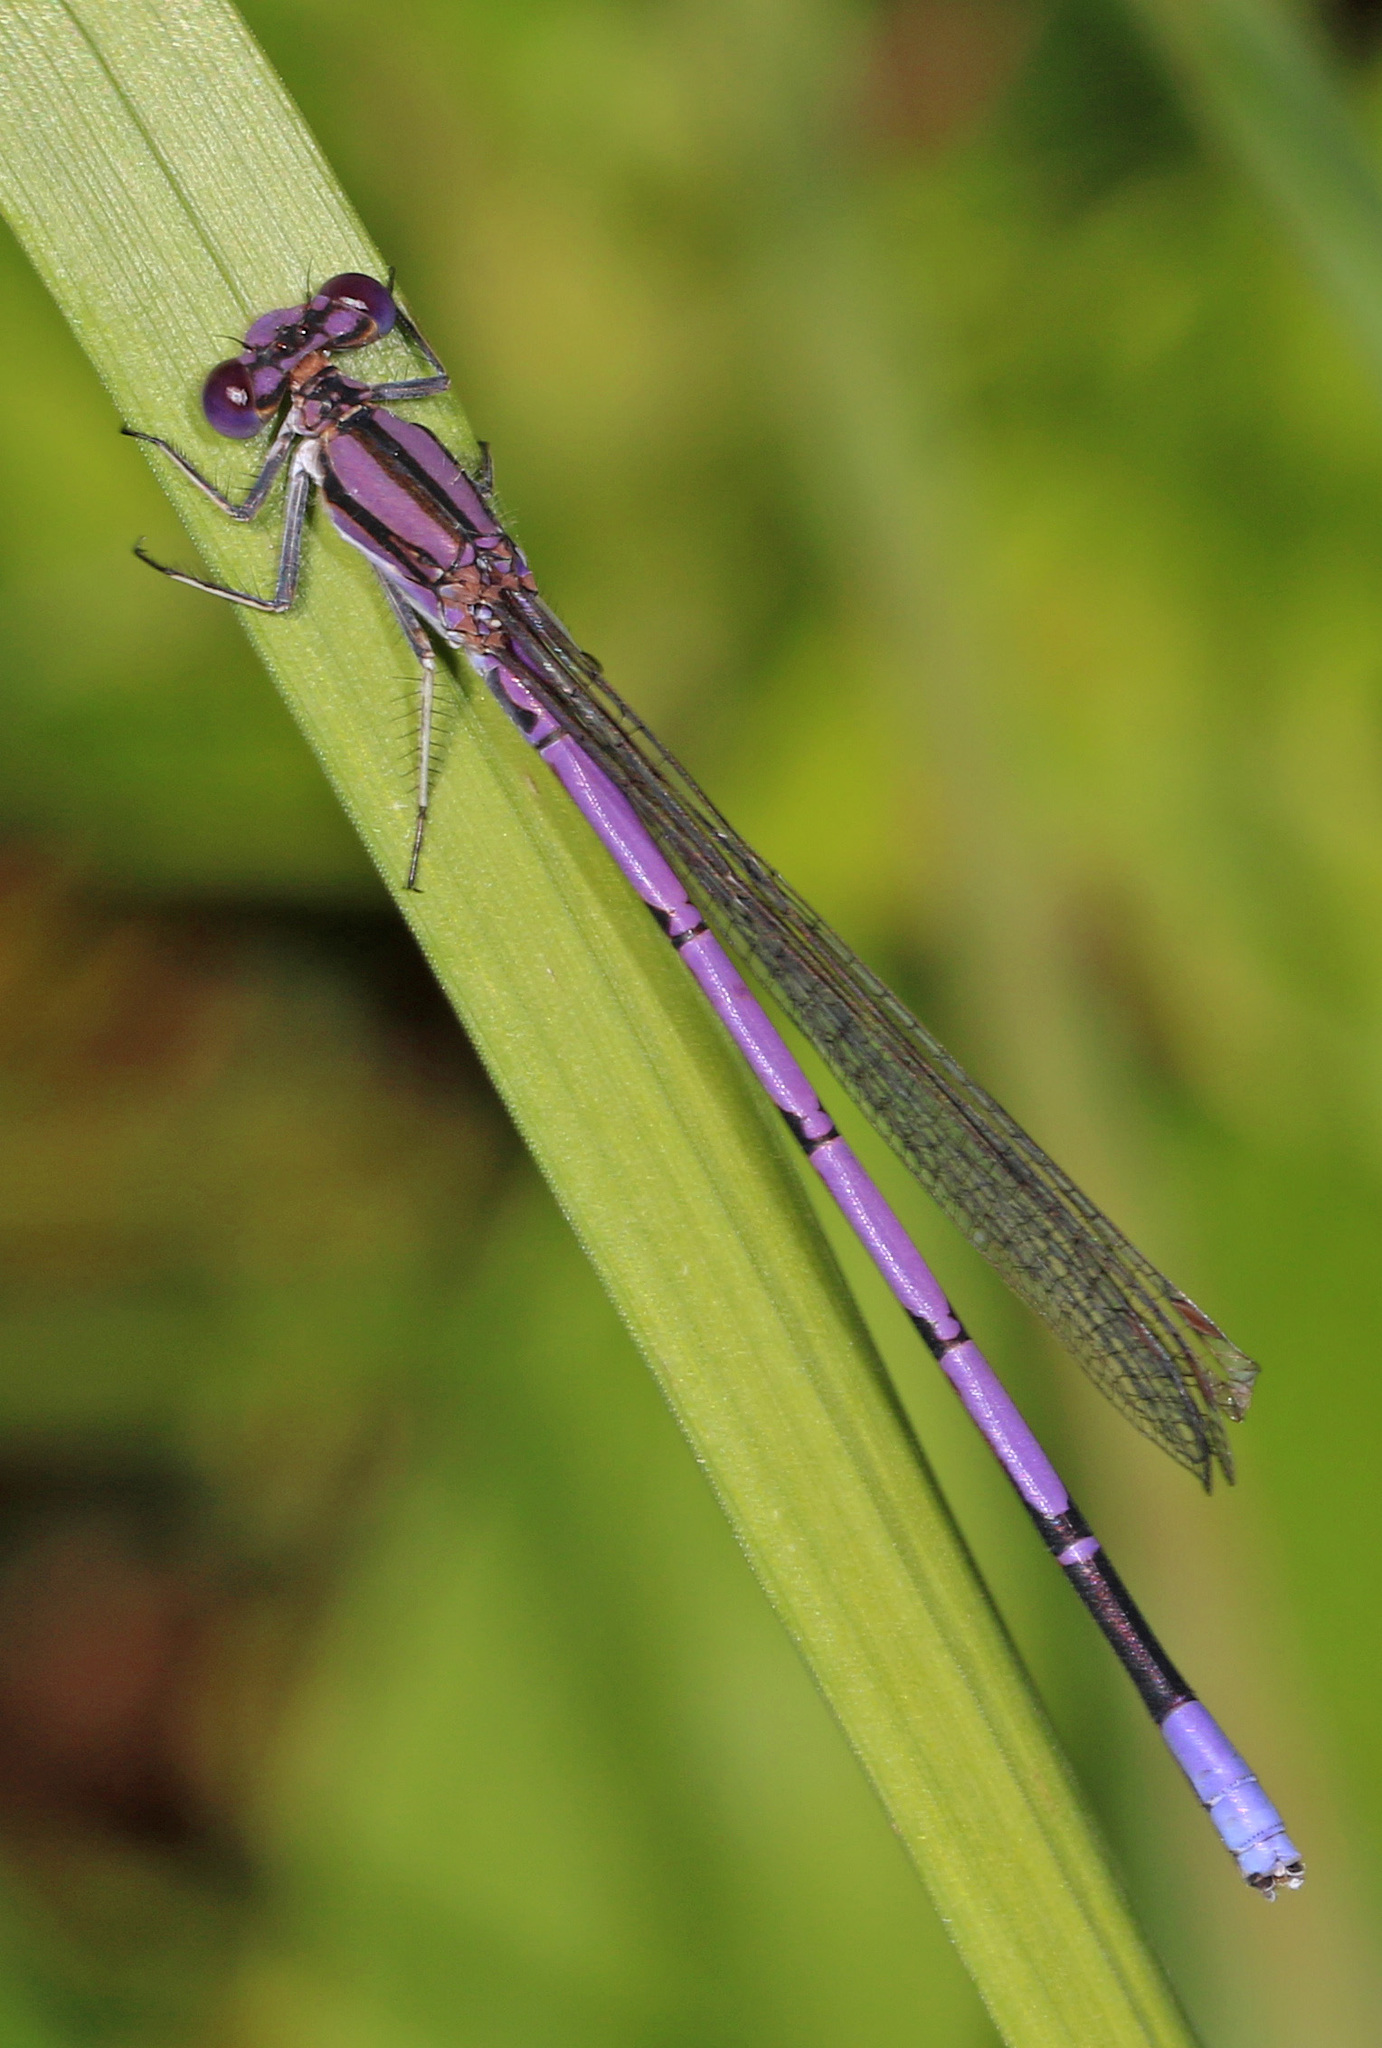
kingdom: Animalia
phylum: Arthropoda
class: Insecta
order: Odonata
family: Coenagrionidae
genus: Argia
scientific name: Argia fumipennis
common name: Variable dancer
